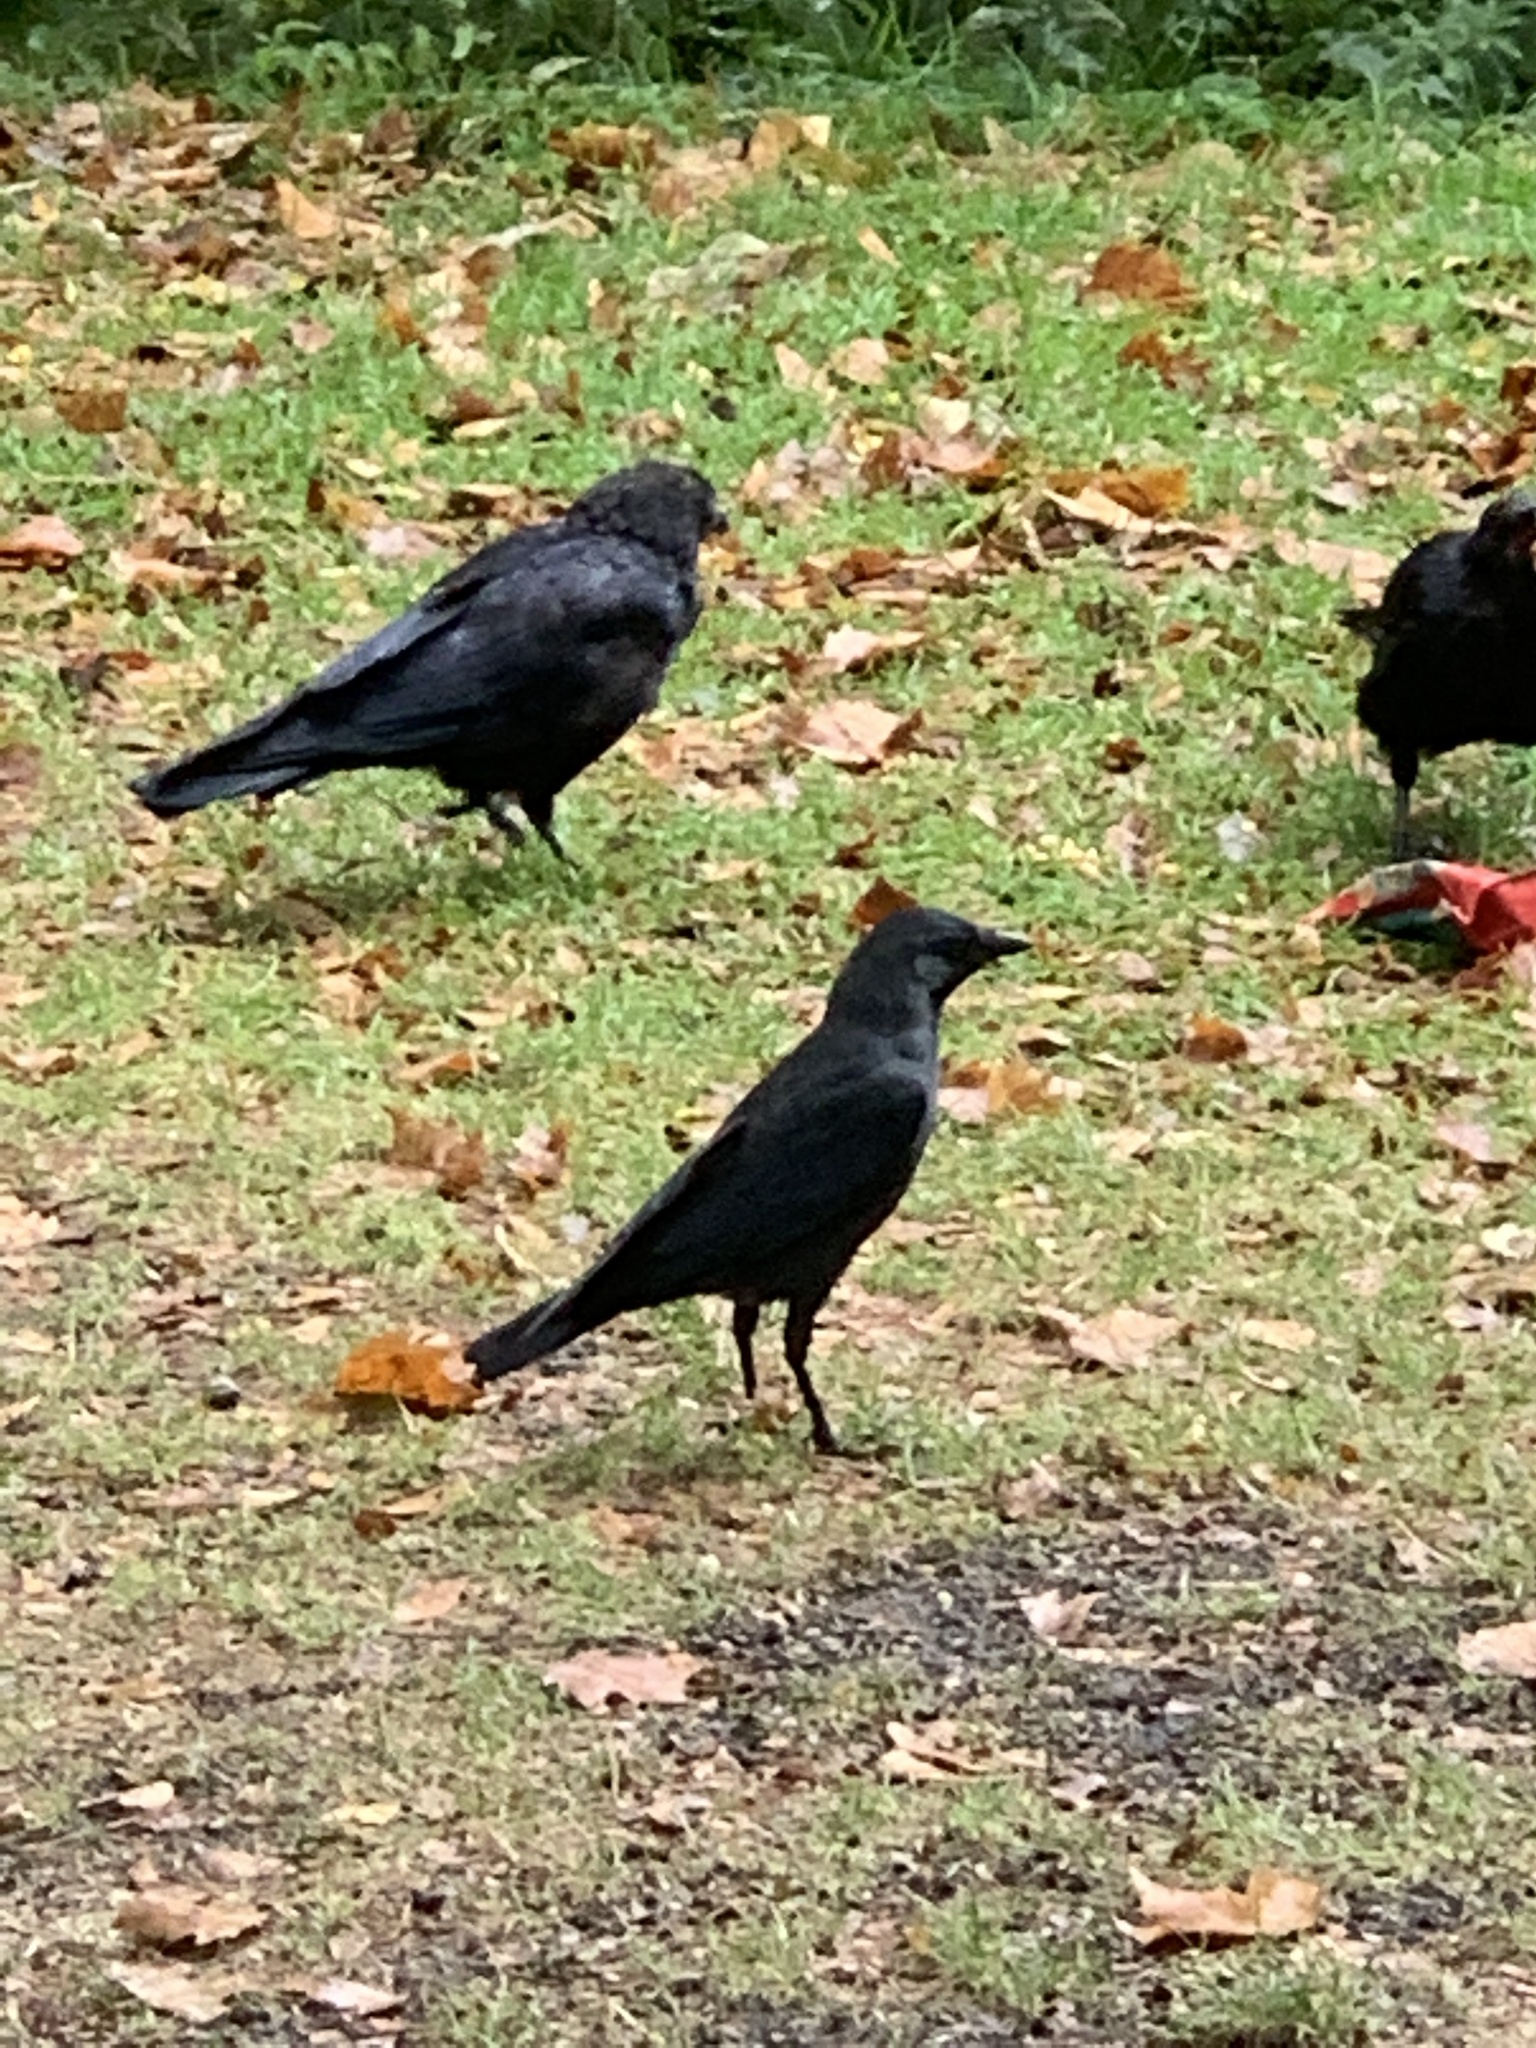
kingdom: Animalia
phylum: Chordata
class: Aves
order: Passeriformes
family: Corvidae
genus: Coloeus
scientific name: Coloeus monedula
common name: Western jackdaw
